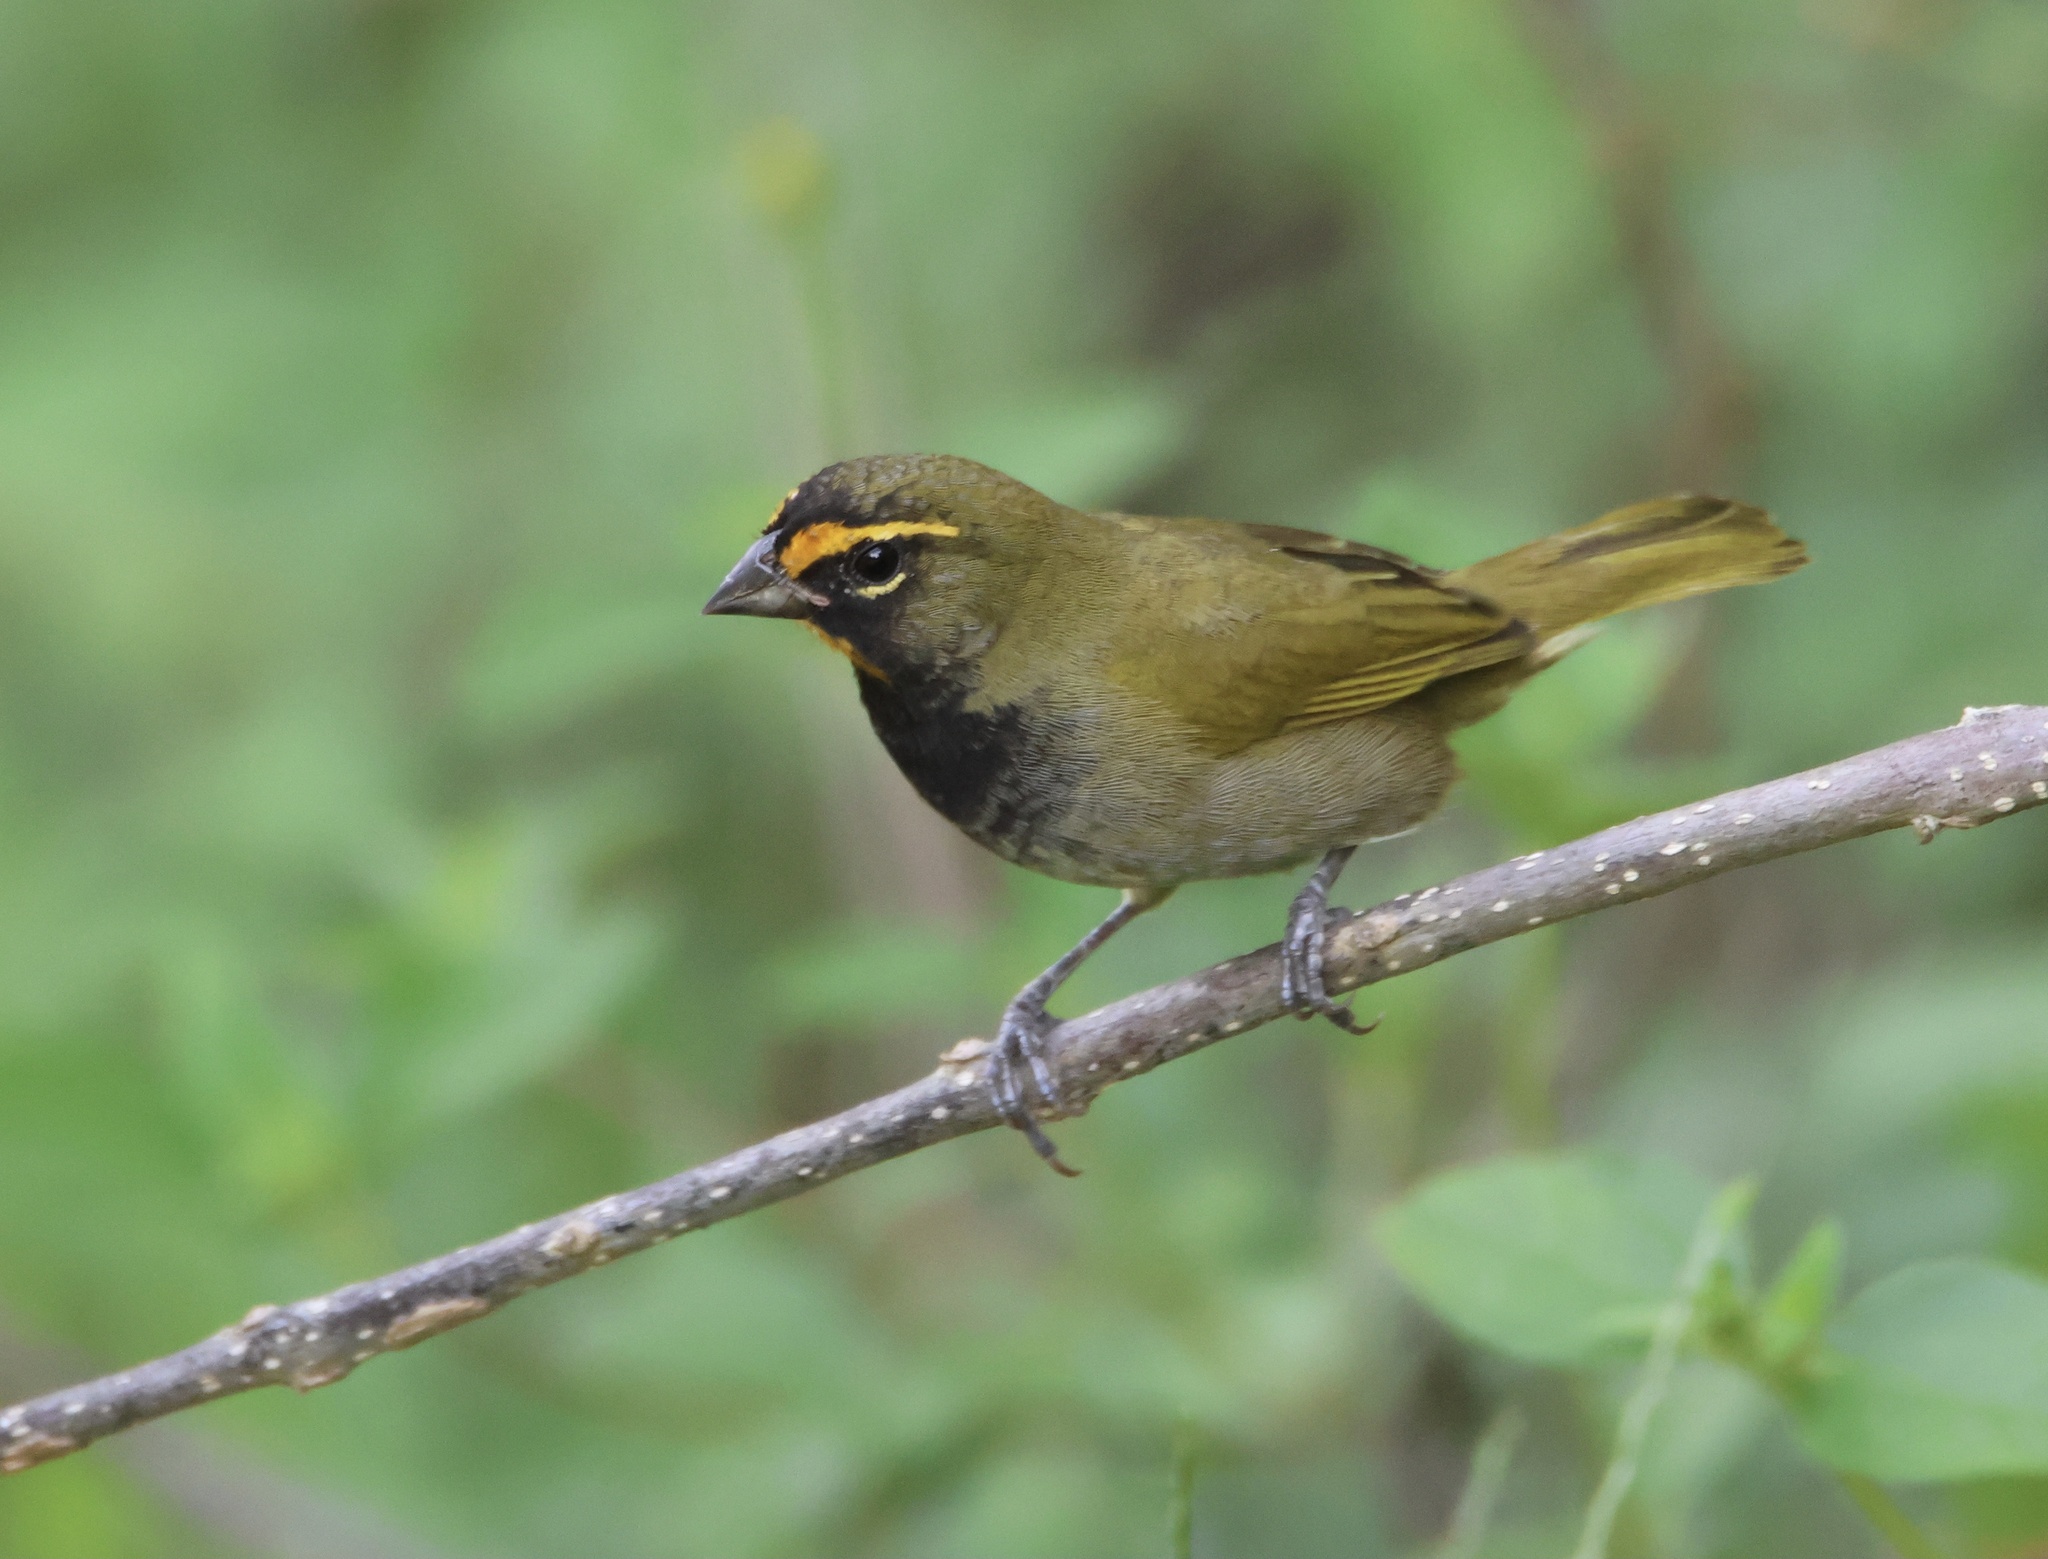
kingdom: Animalia
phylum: Chordata
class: Aves
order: Passeriformes
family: Thraupidae
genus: Tiaris
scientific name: Tiaris olivaceus
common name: Yellow-faced grassquit
